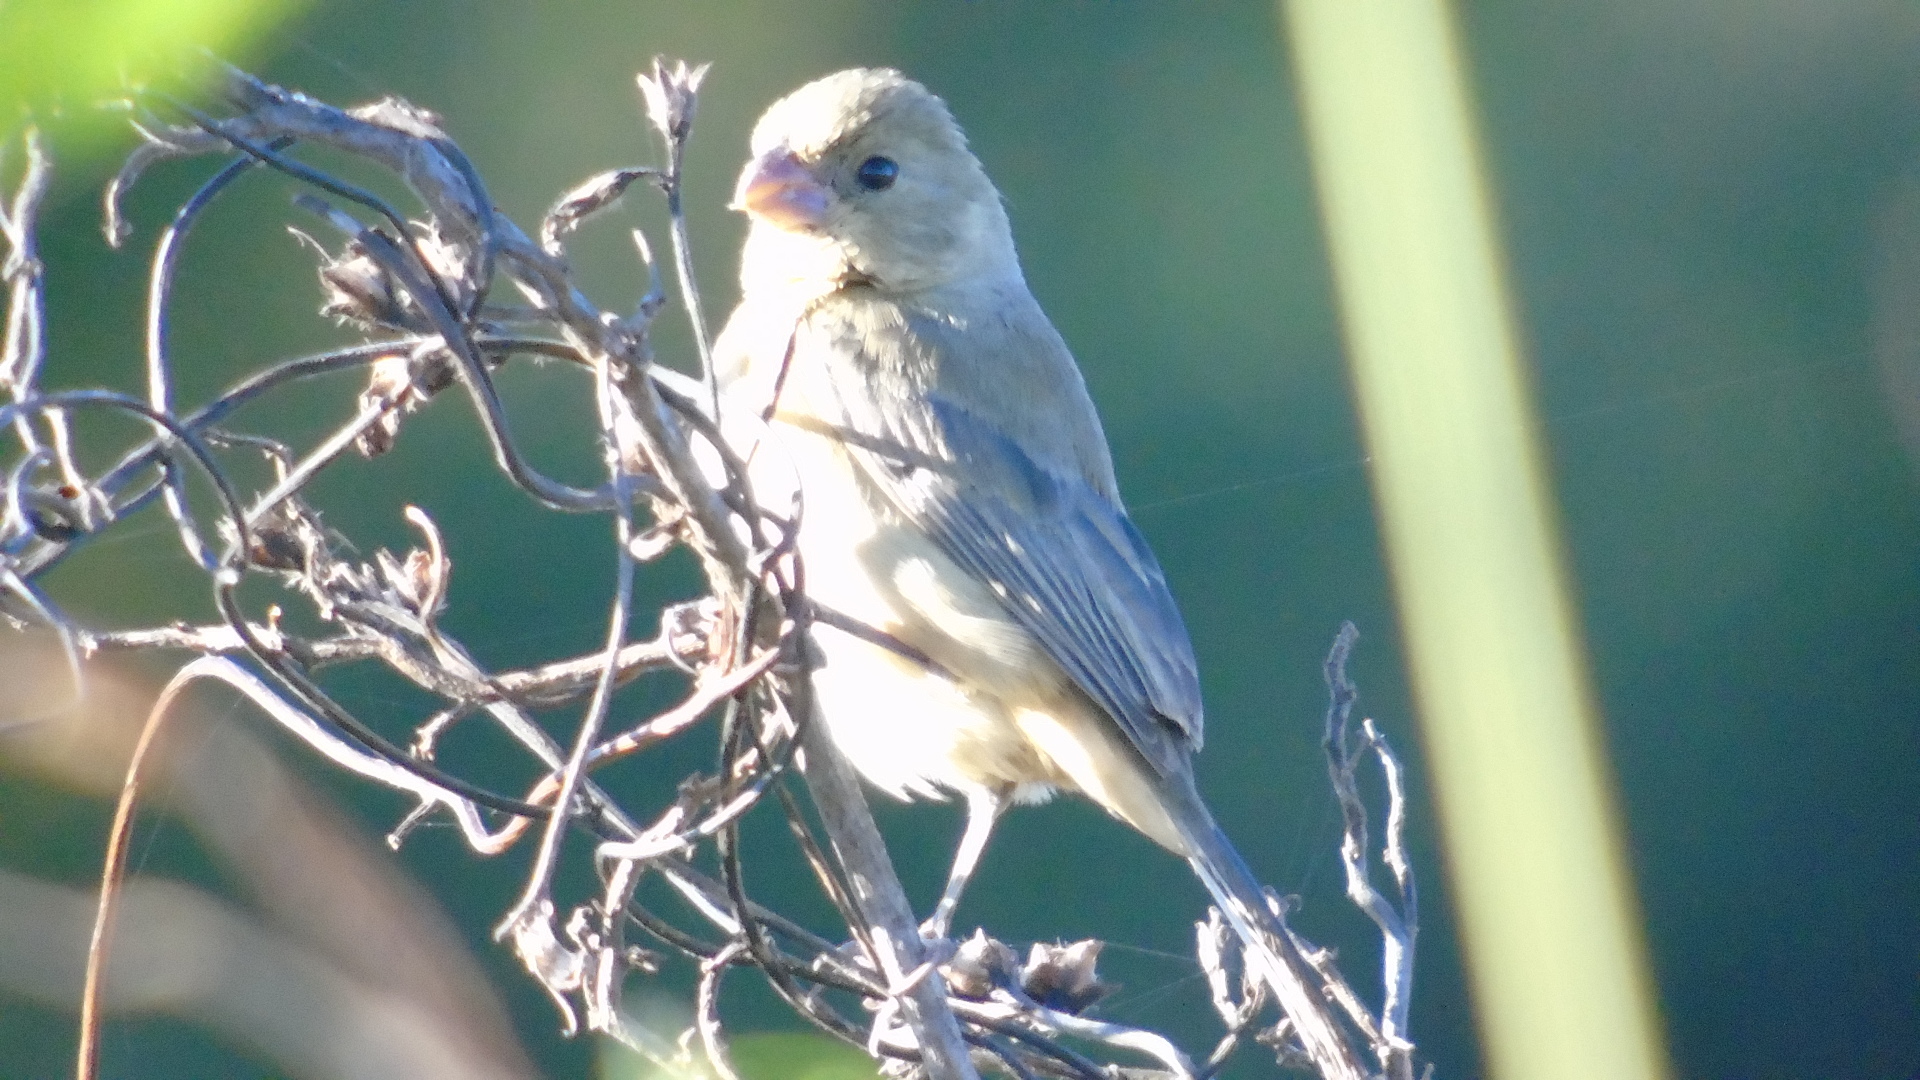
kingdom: Animalia
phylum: Chordata
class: Aves
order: Passeriformes
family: Thraupidae
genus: Sporophila
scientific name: Sporophila minuta
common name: Ruddy-breasted seedeater
